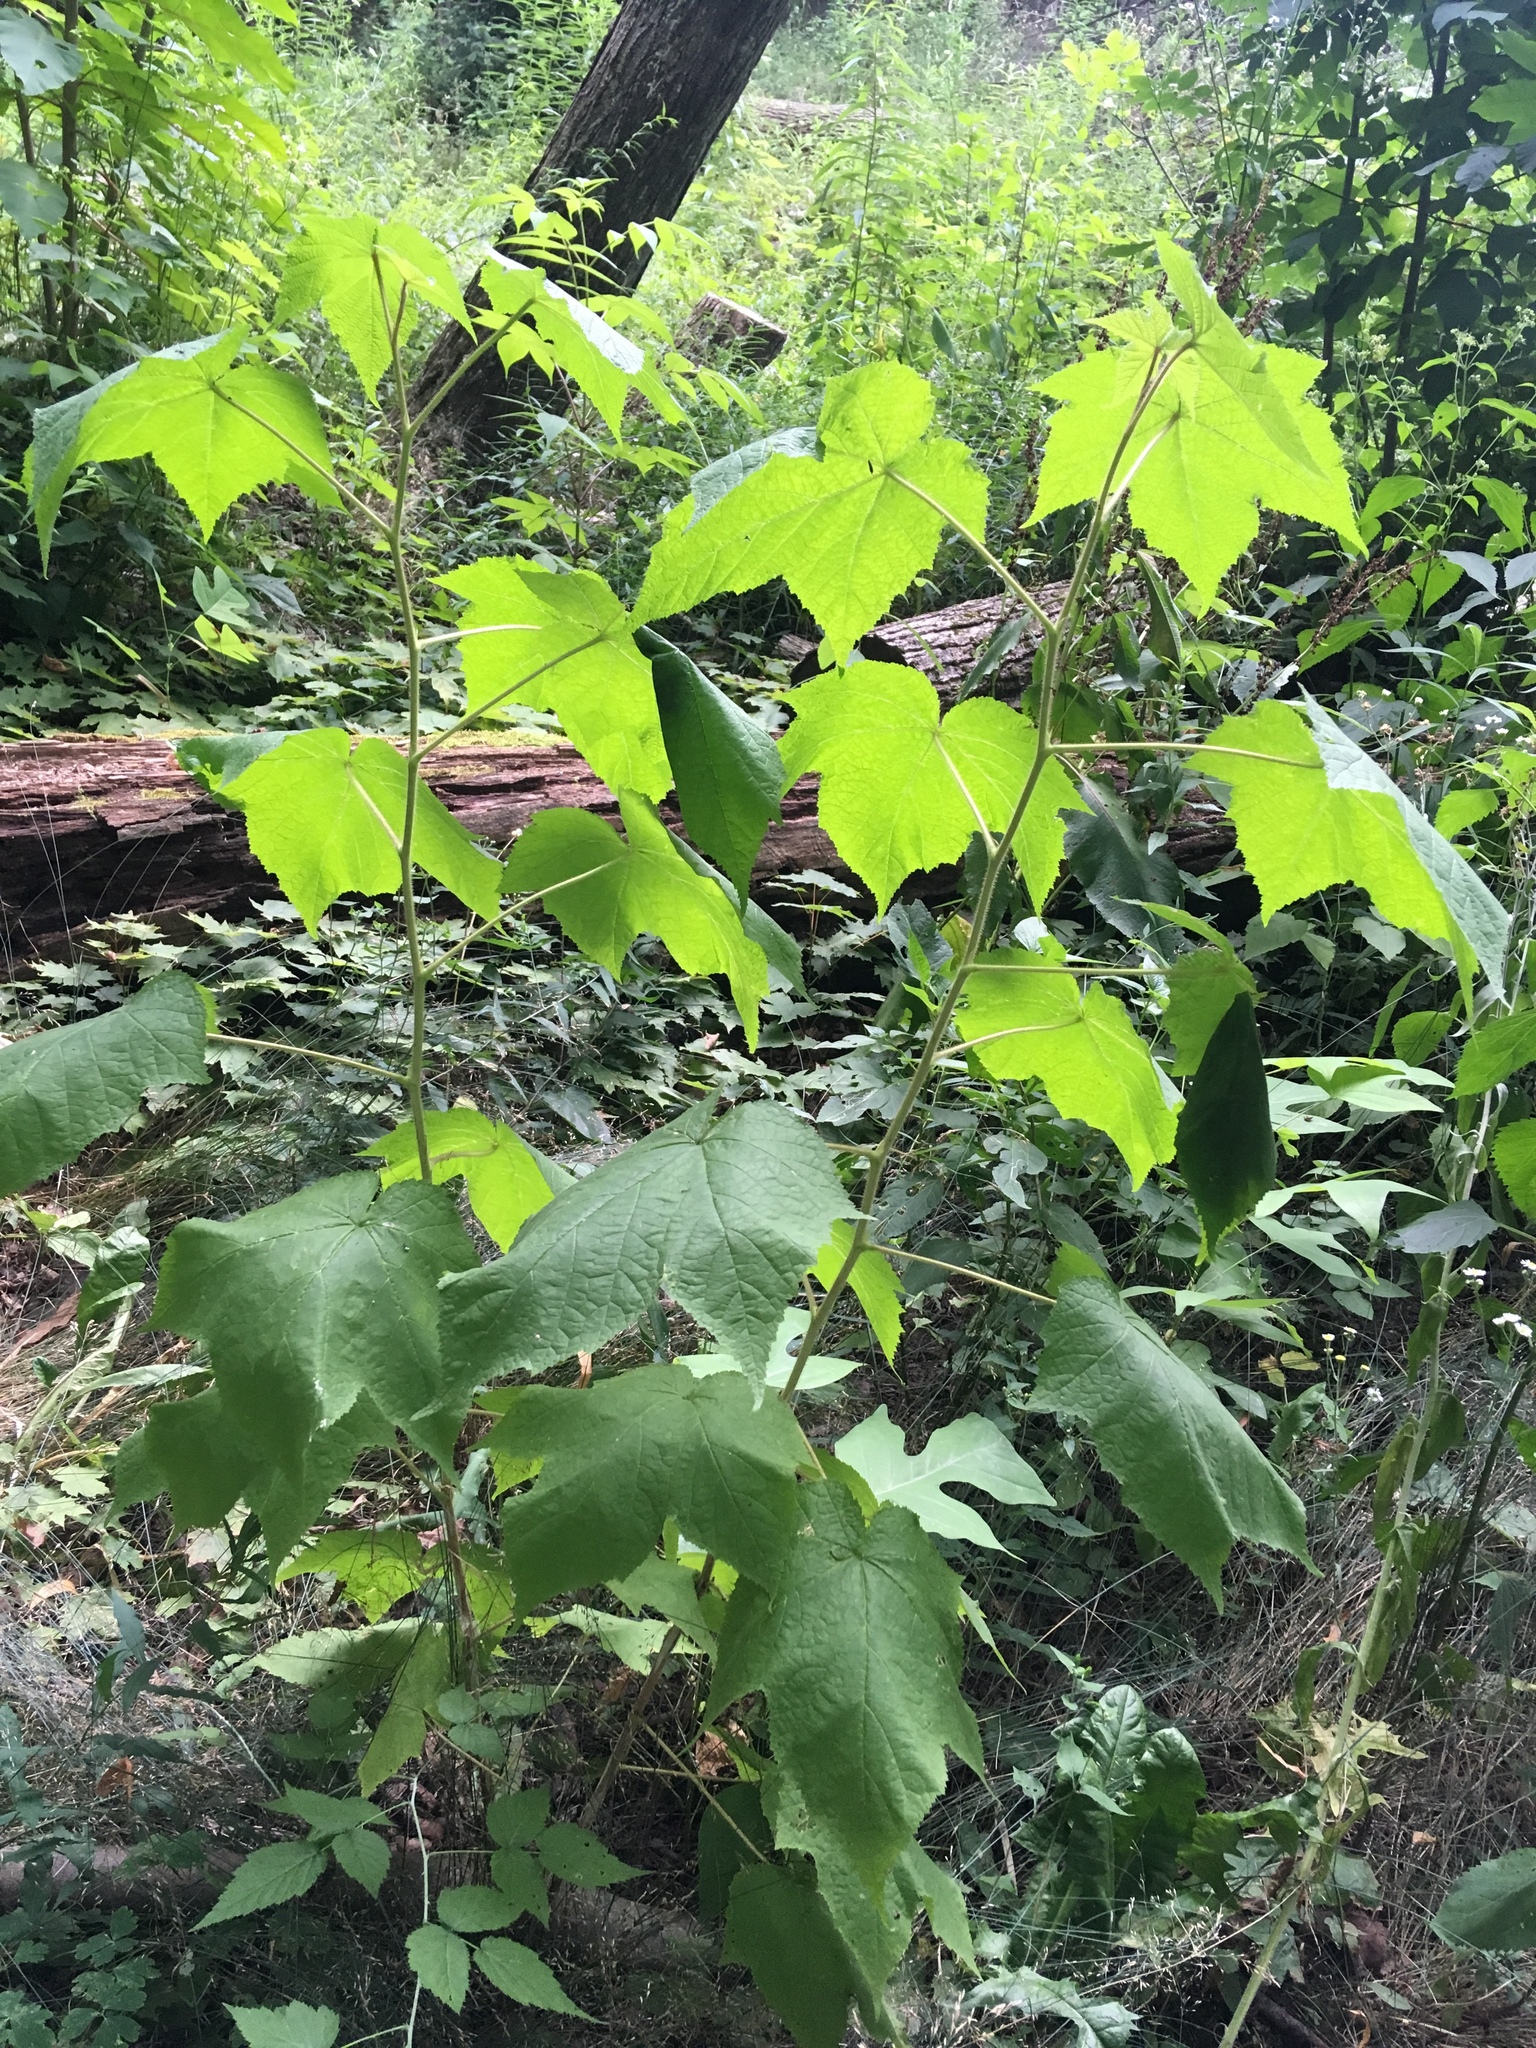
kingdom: Plantae
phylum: Tracheophyta
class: Magnoliopsida
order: Rosales
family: Rosaceae
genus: Rubus
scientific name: Rubus odoratus
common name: Purple-flowered raspberry
